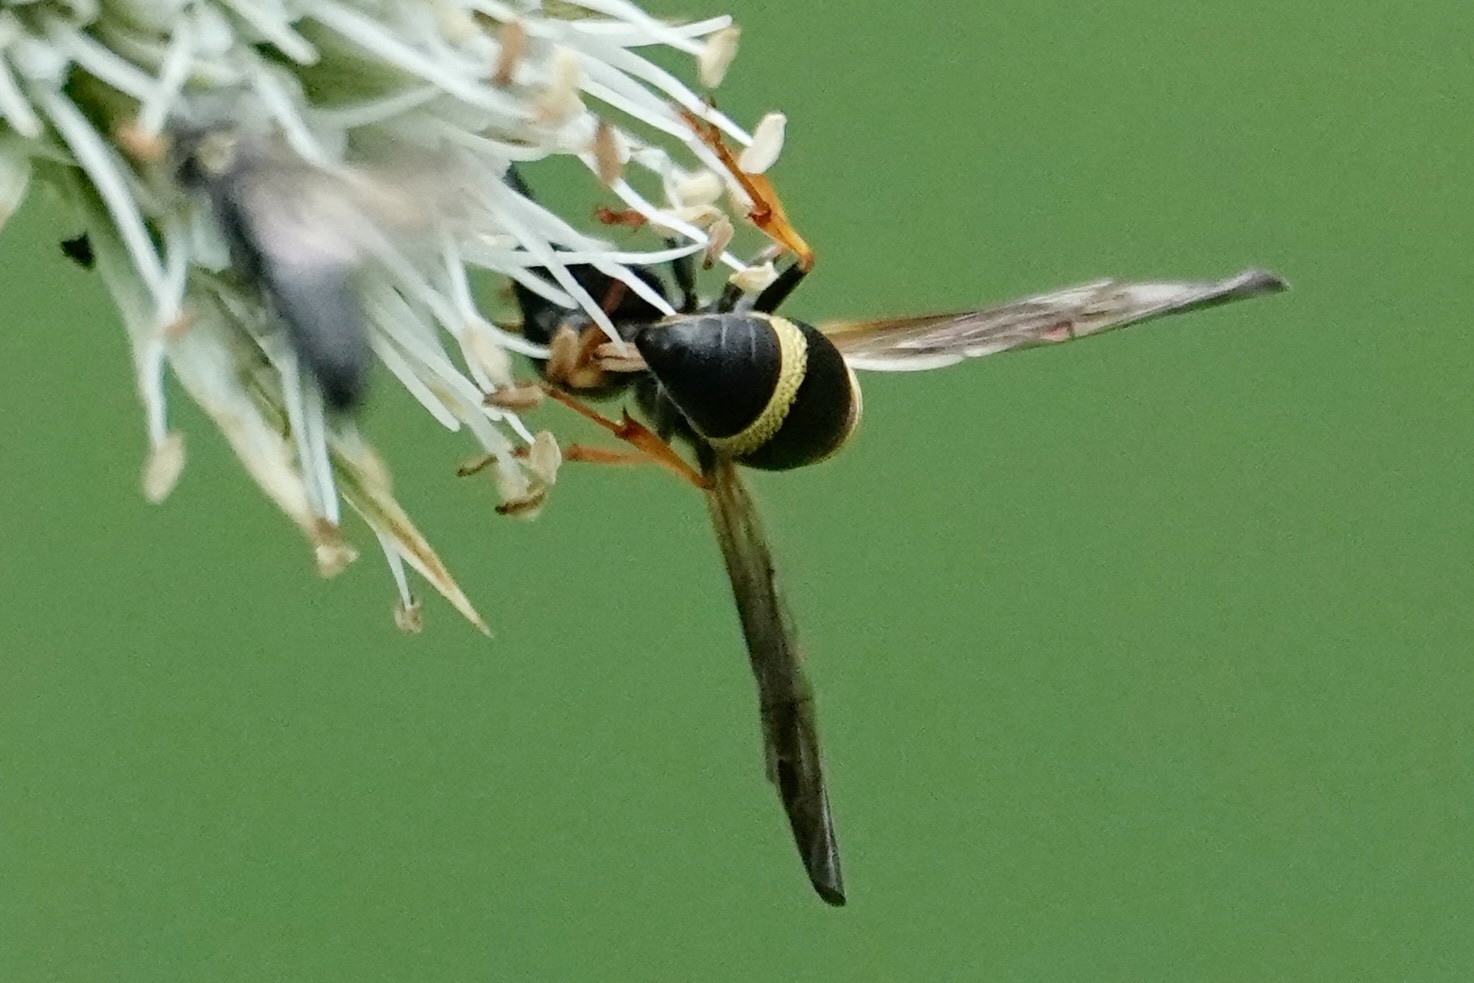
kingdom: Animalia
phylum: Arthropoda
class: Insecta
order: Hymenoptera
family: Eumenidae
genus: Parancistrocerus
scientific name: Parancistrocerus perennis
